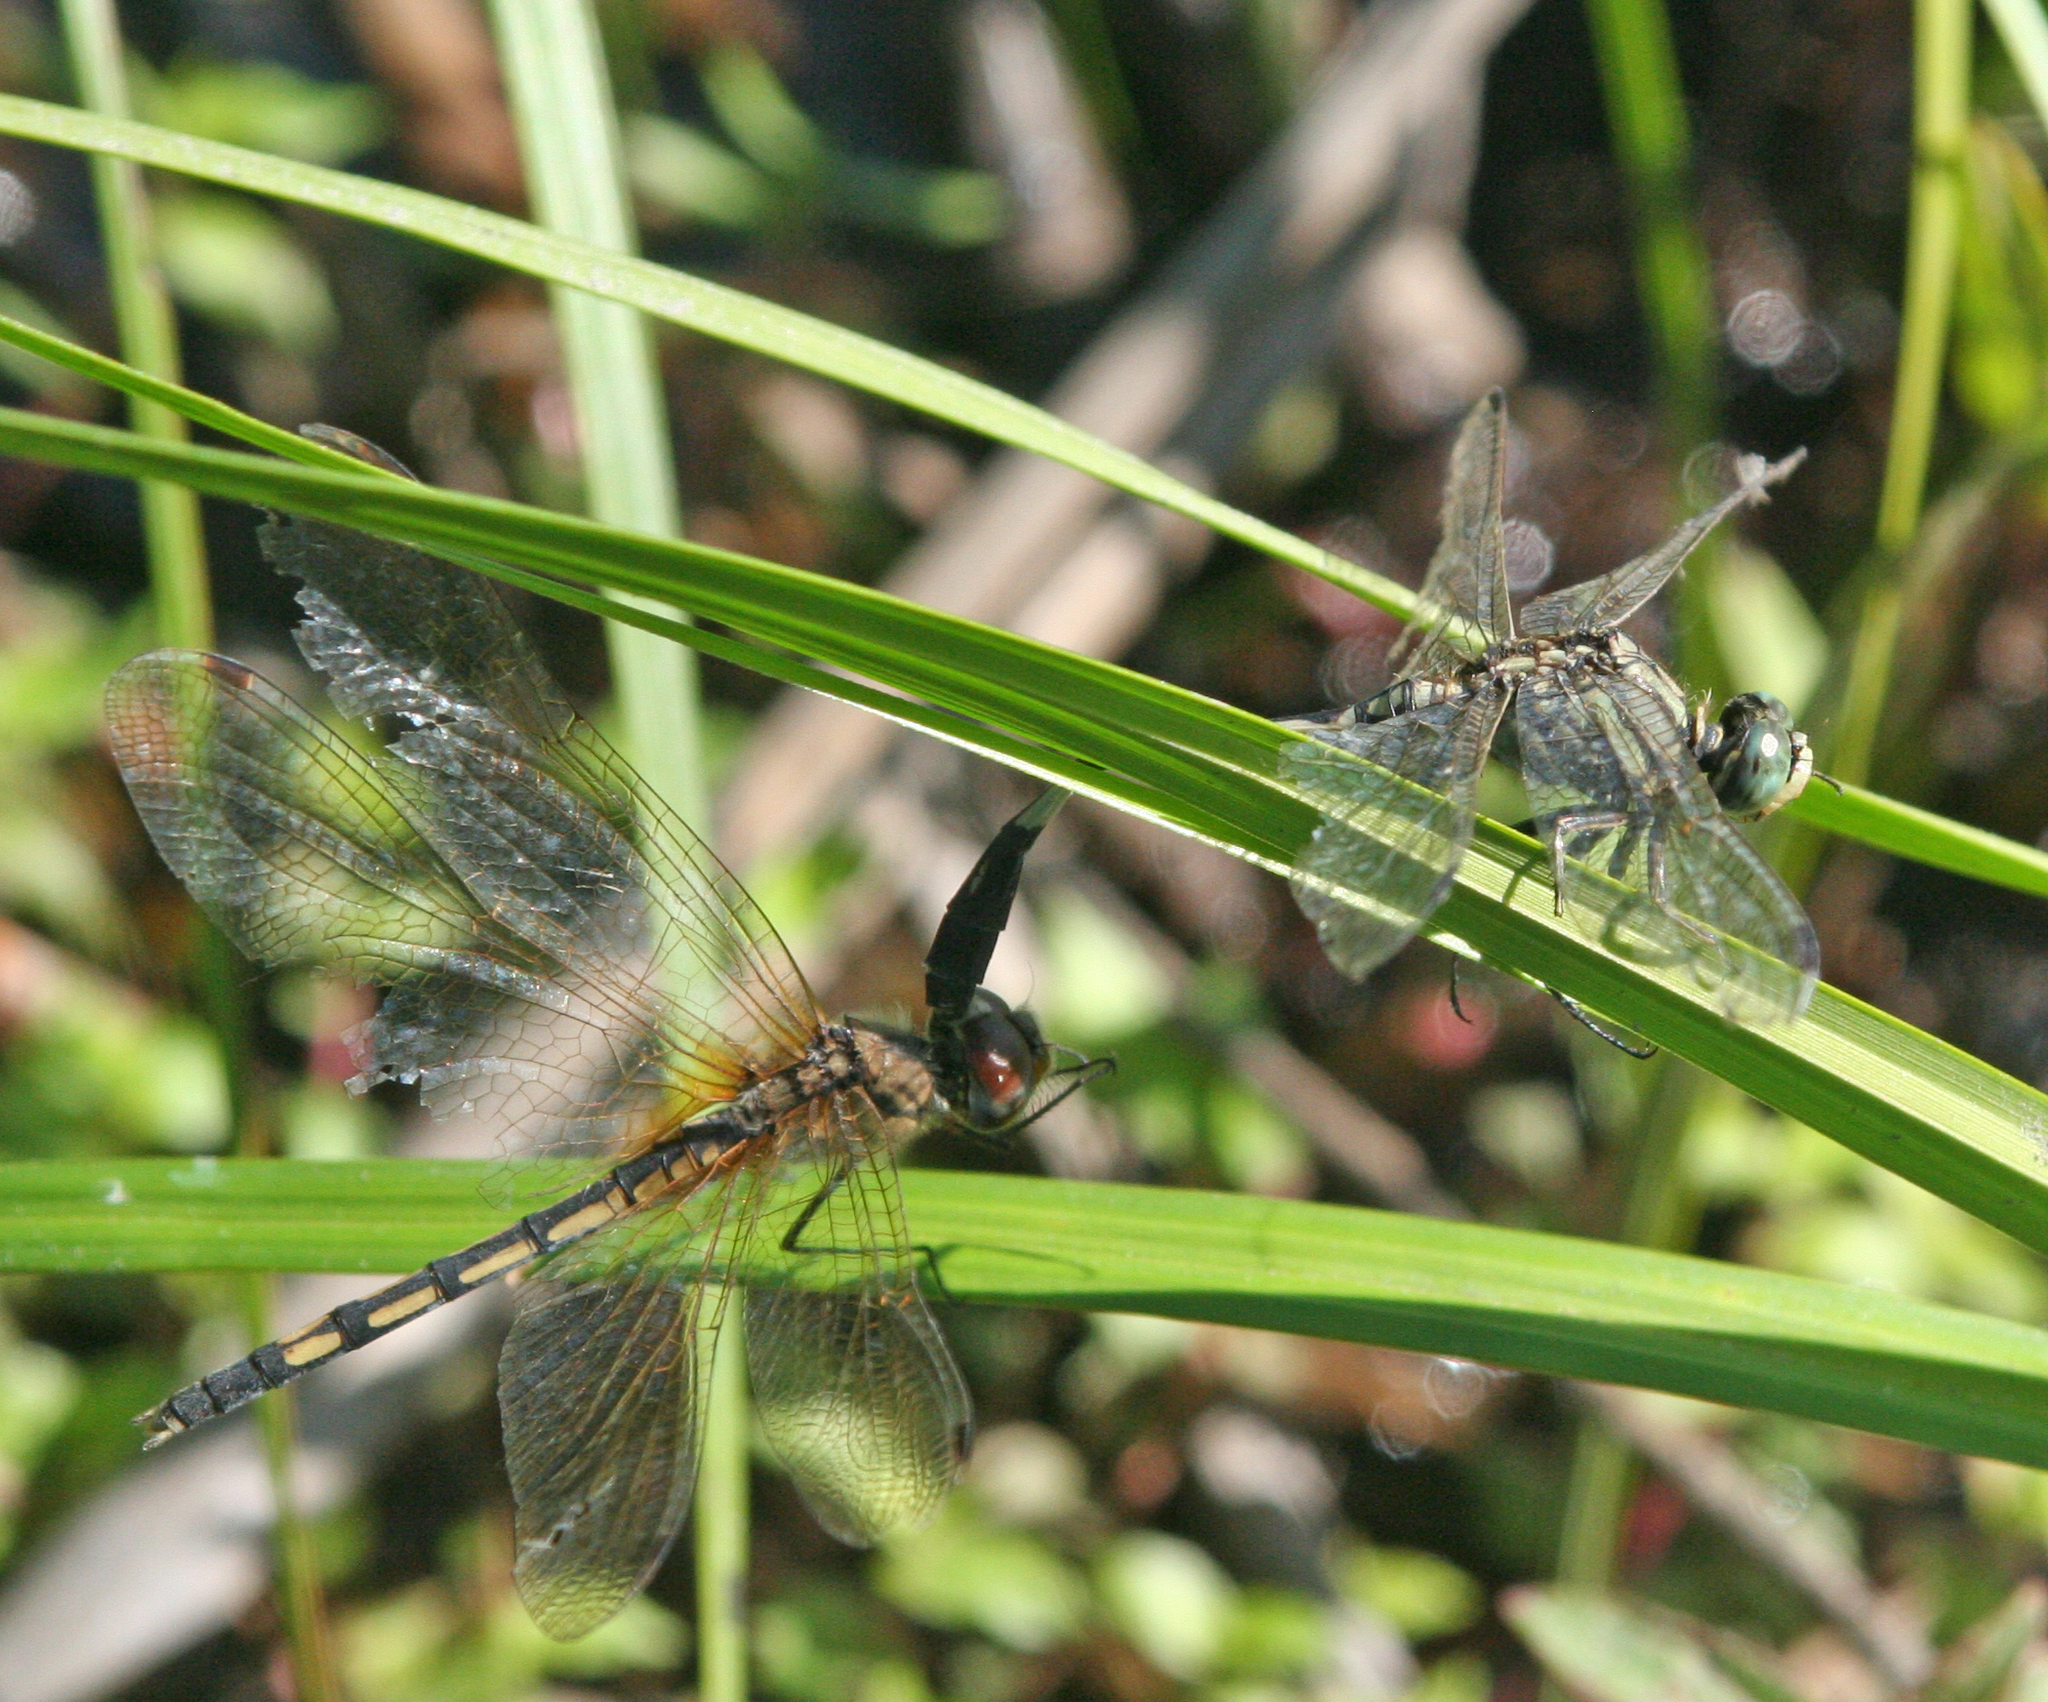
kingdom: Animalia
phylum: Arthropoda
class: Insecta
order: Odonata
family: Libellulidae
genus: Trithemis
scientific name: Trithemis pallidinervis
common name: Dancing dropwing
